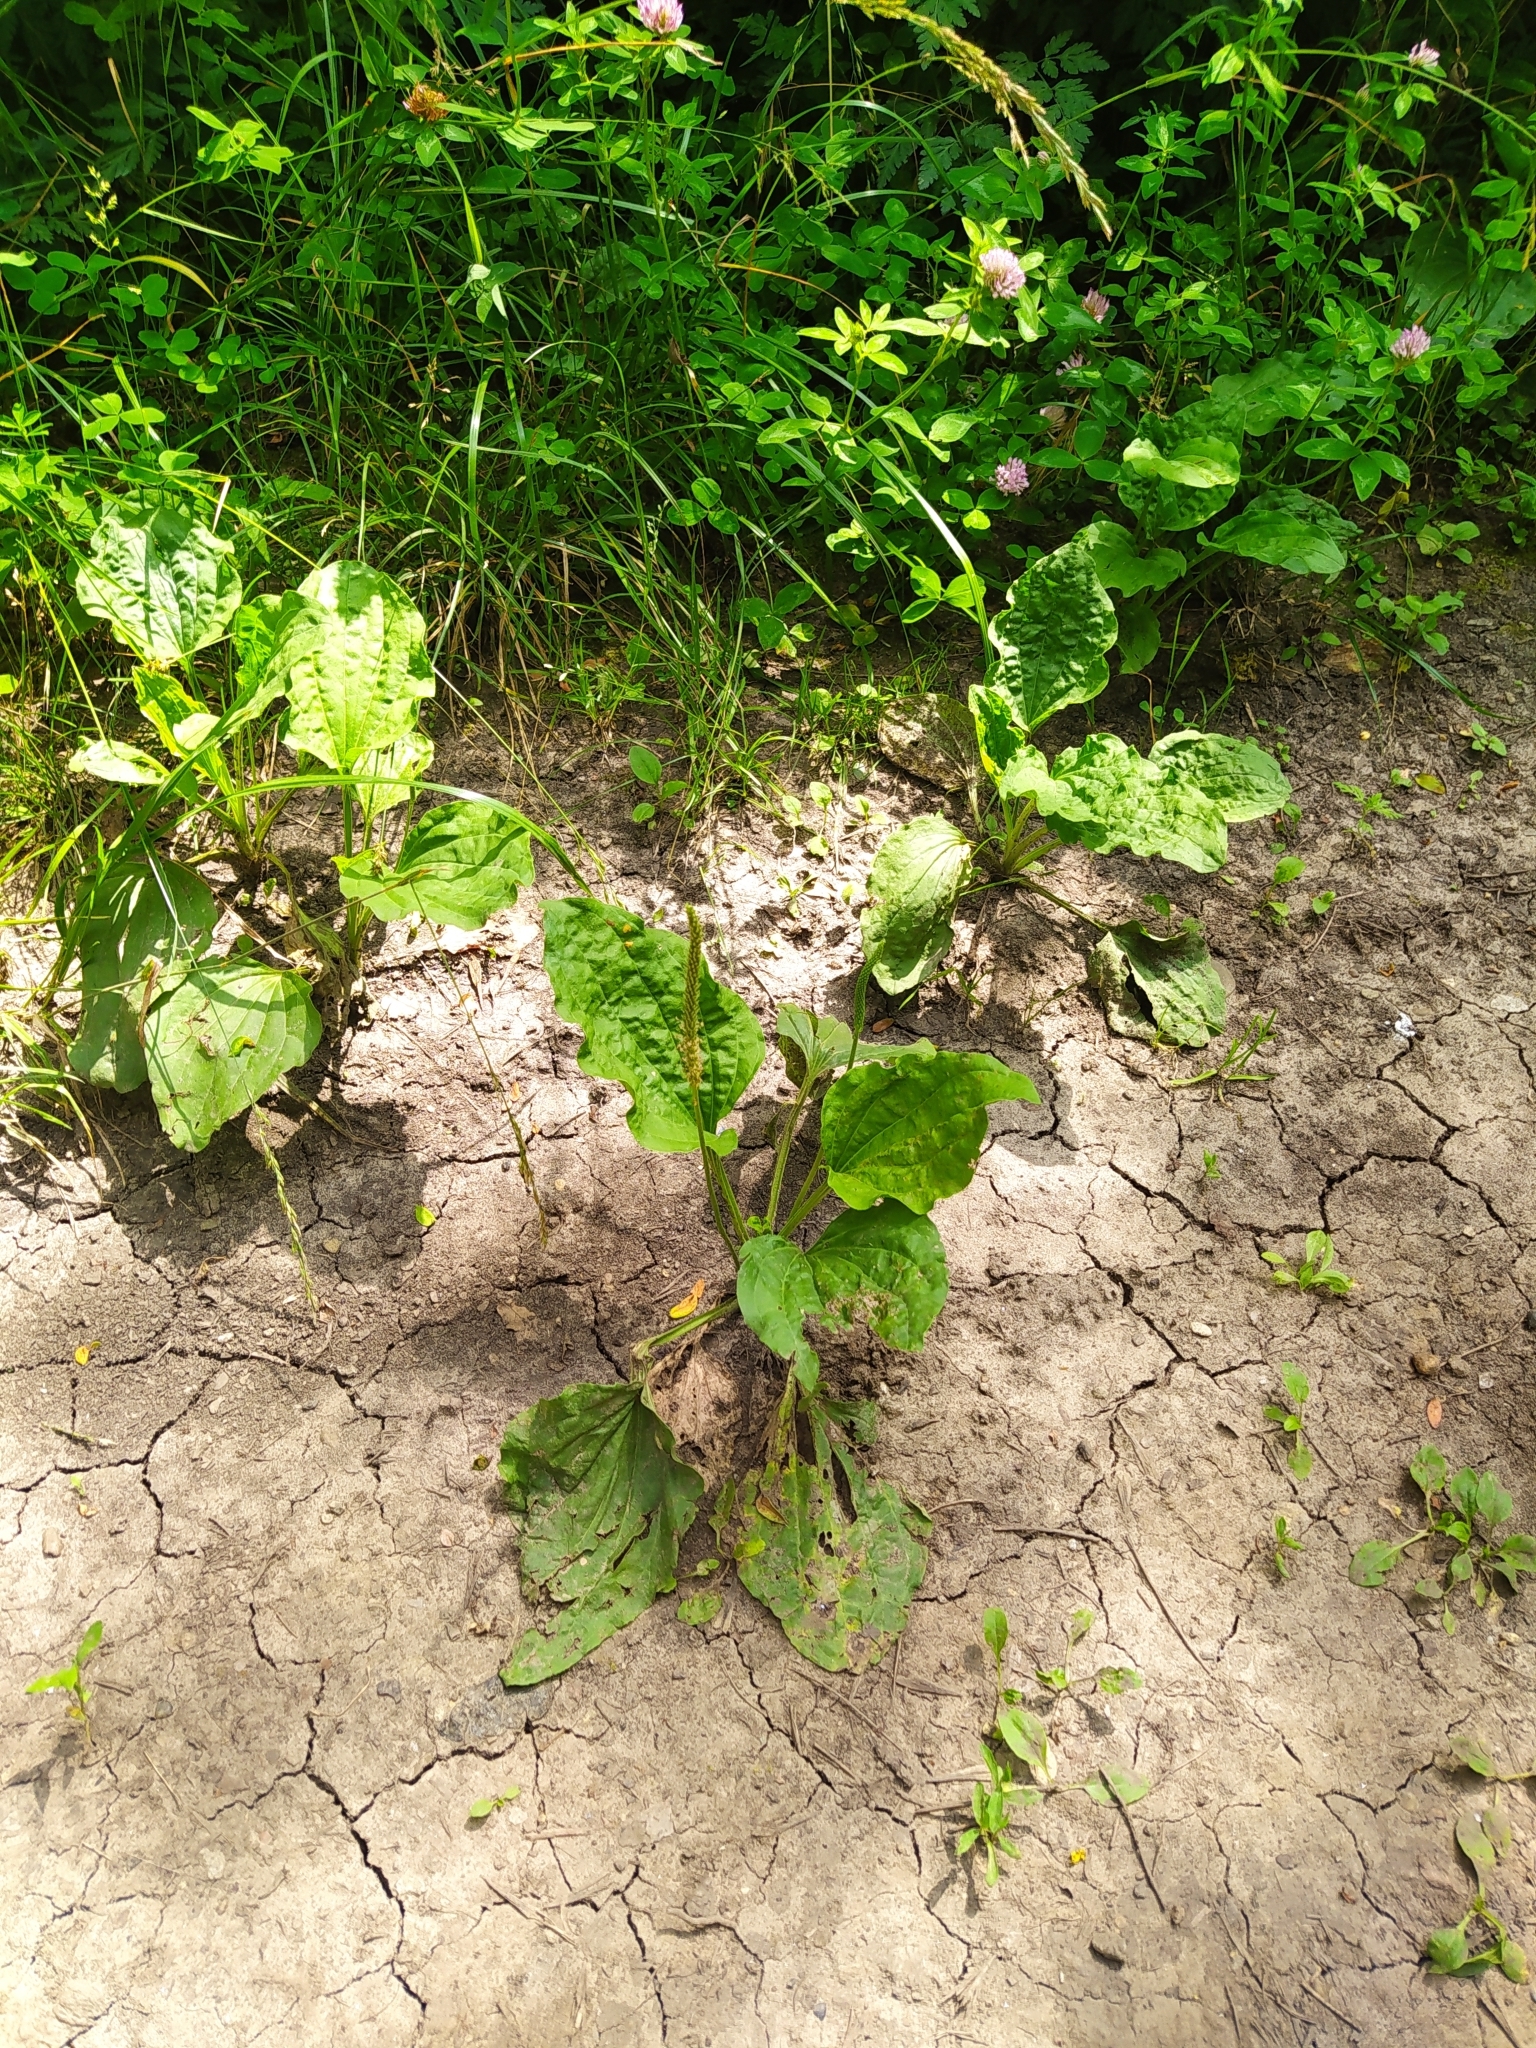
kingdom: Plantae
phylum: Tracheophyta
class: Magnoliopsida
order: Lamiales
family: Plantaginaceae
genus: Plantago
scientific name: Plantago major
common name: Common plantain
